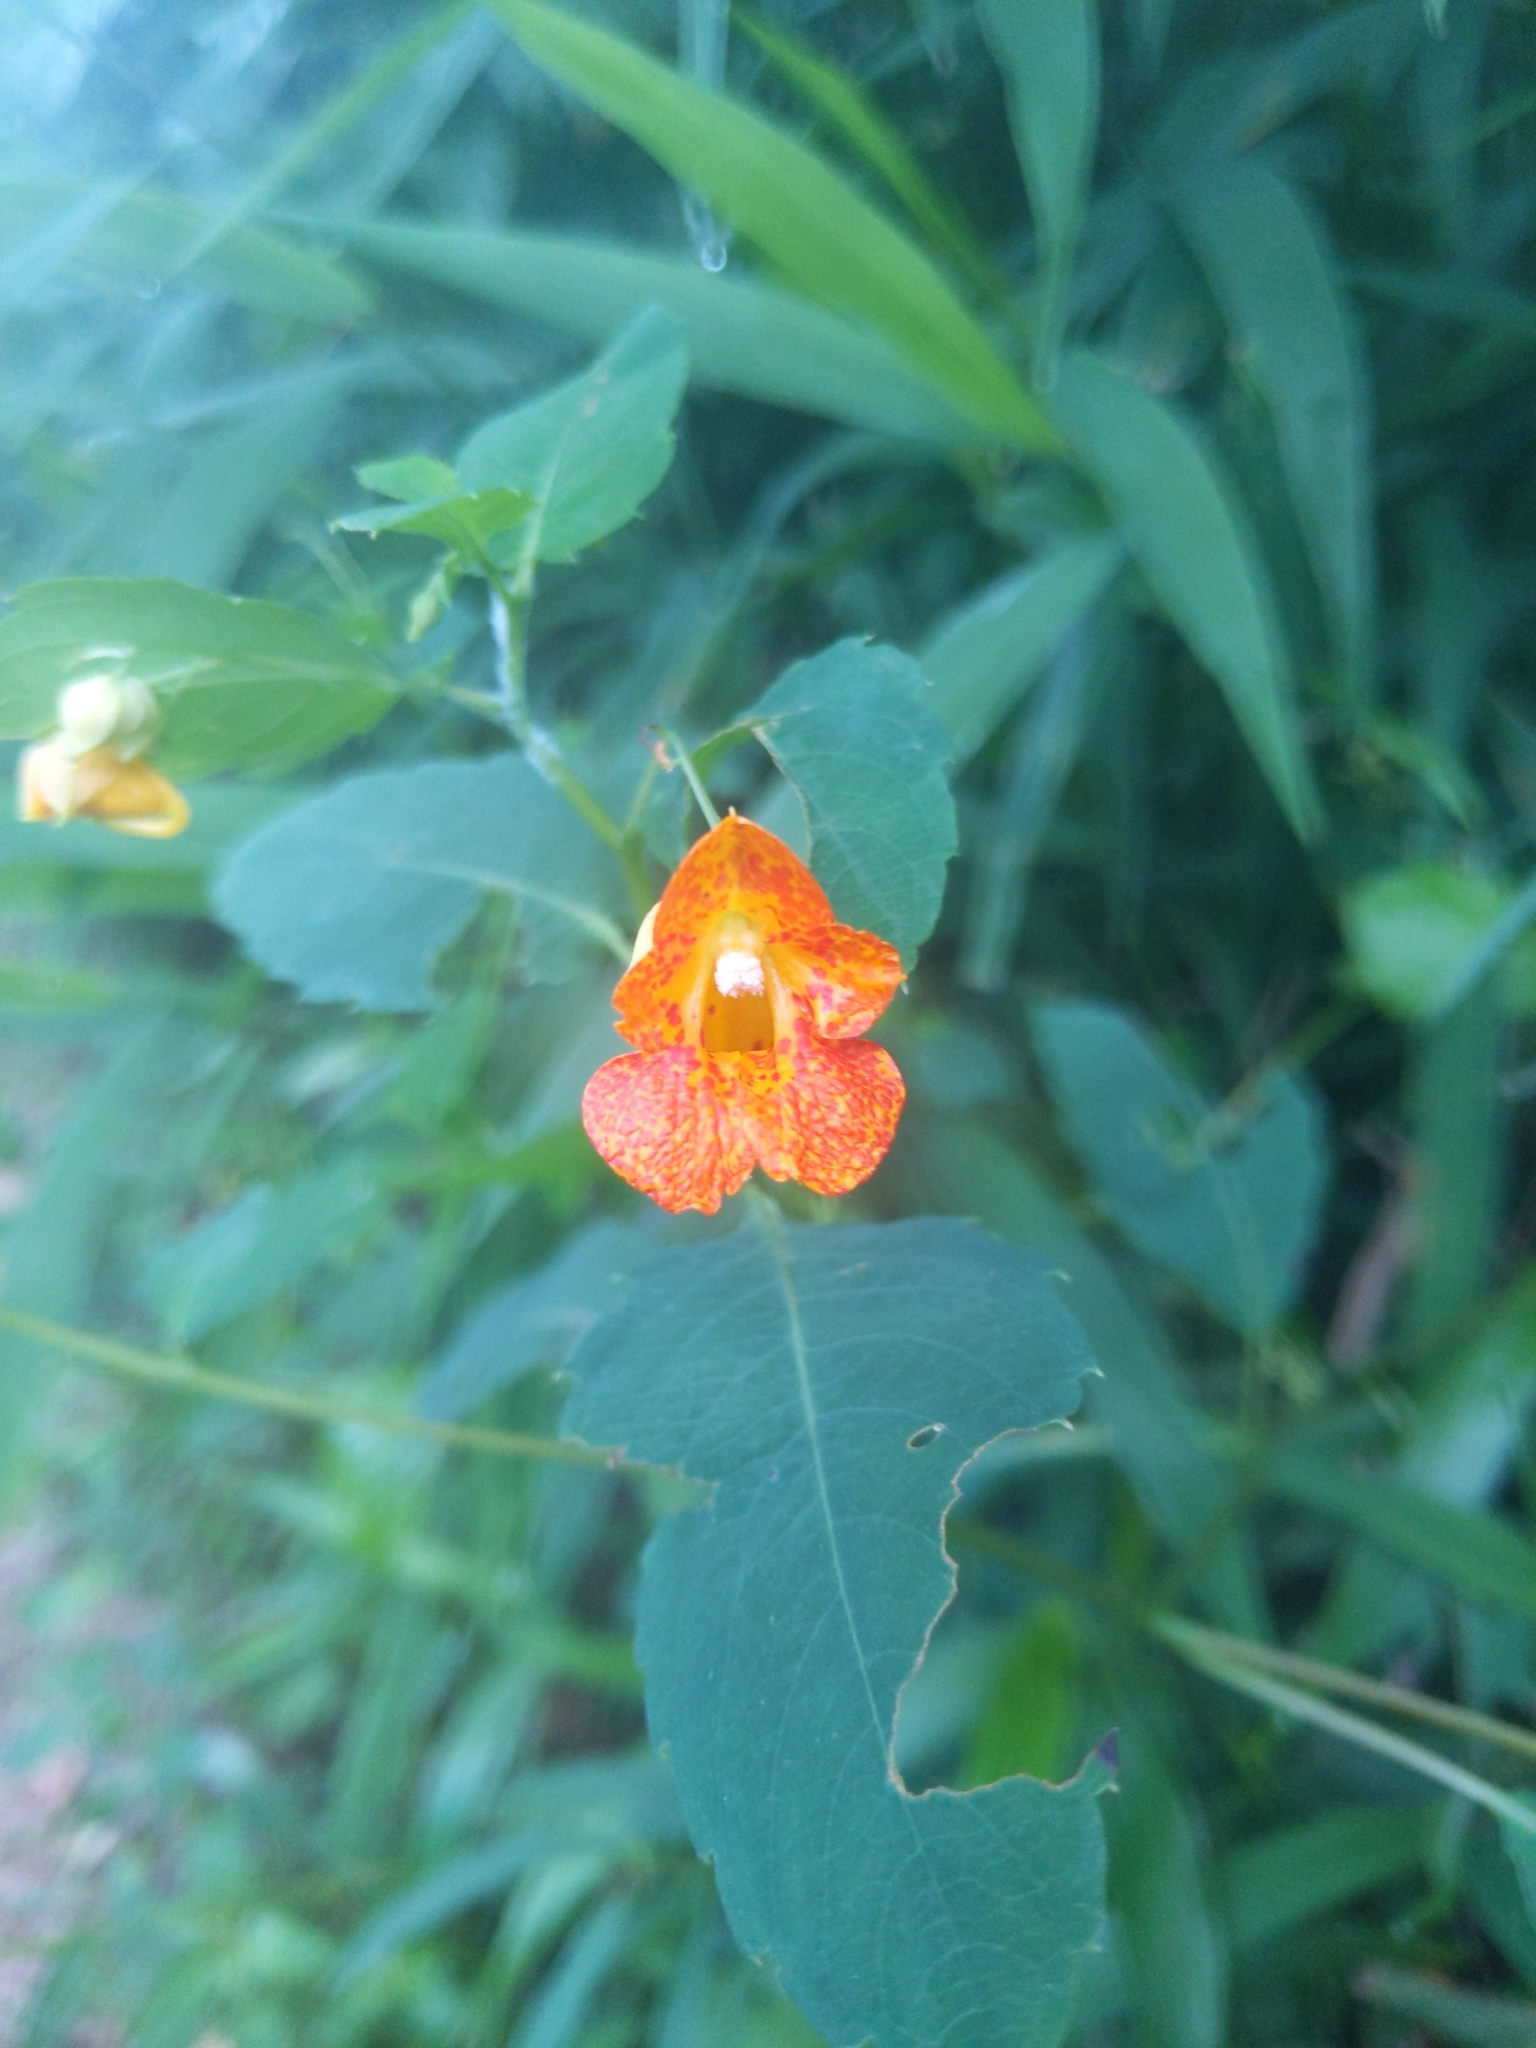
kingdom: Plantae
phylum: Tracheophyta
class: Magnoliopsida
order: Ericales
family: Balsaminaceae
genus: Impatiens
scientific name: Impatiens capensis
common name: Orange balsam
